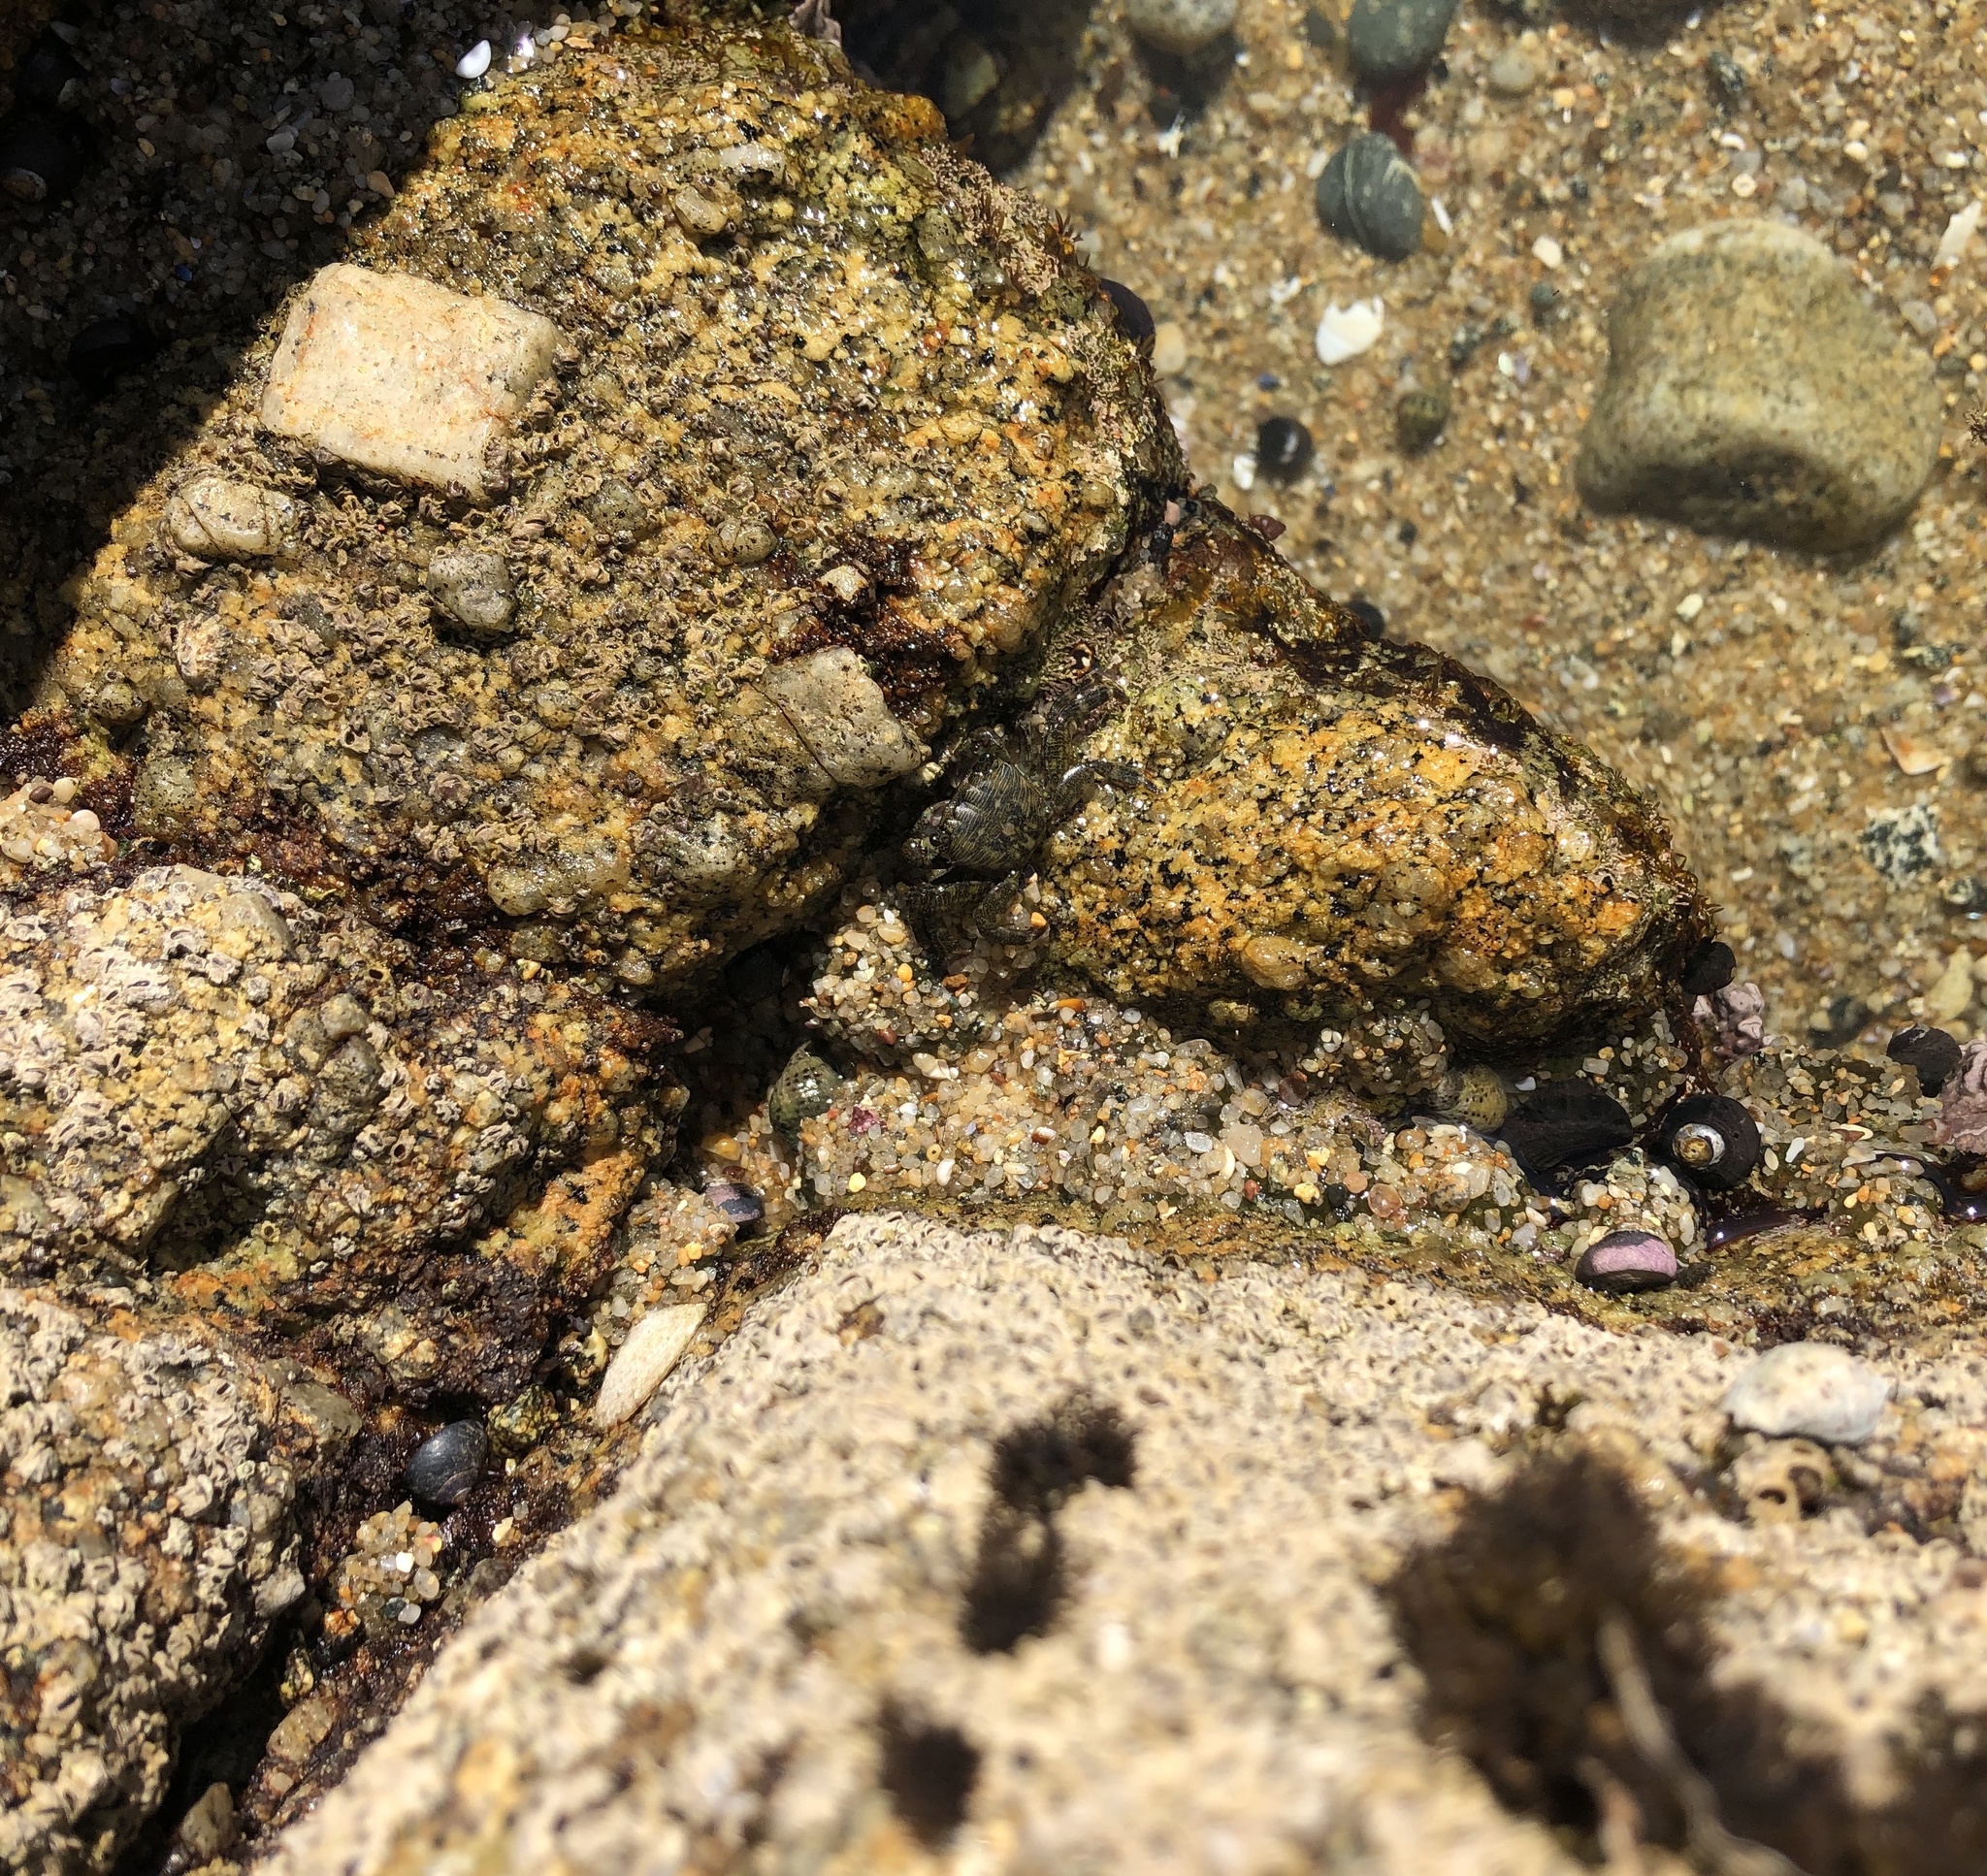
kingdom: Animalia
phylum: Arthropoda
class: Malacostraca
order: Decapoda
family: Grapsidae
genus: Pachygrapsus
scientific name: Pachygrapsus crassipes
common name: Striped shore crab
